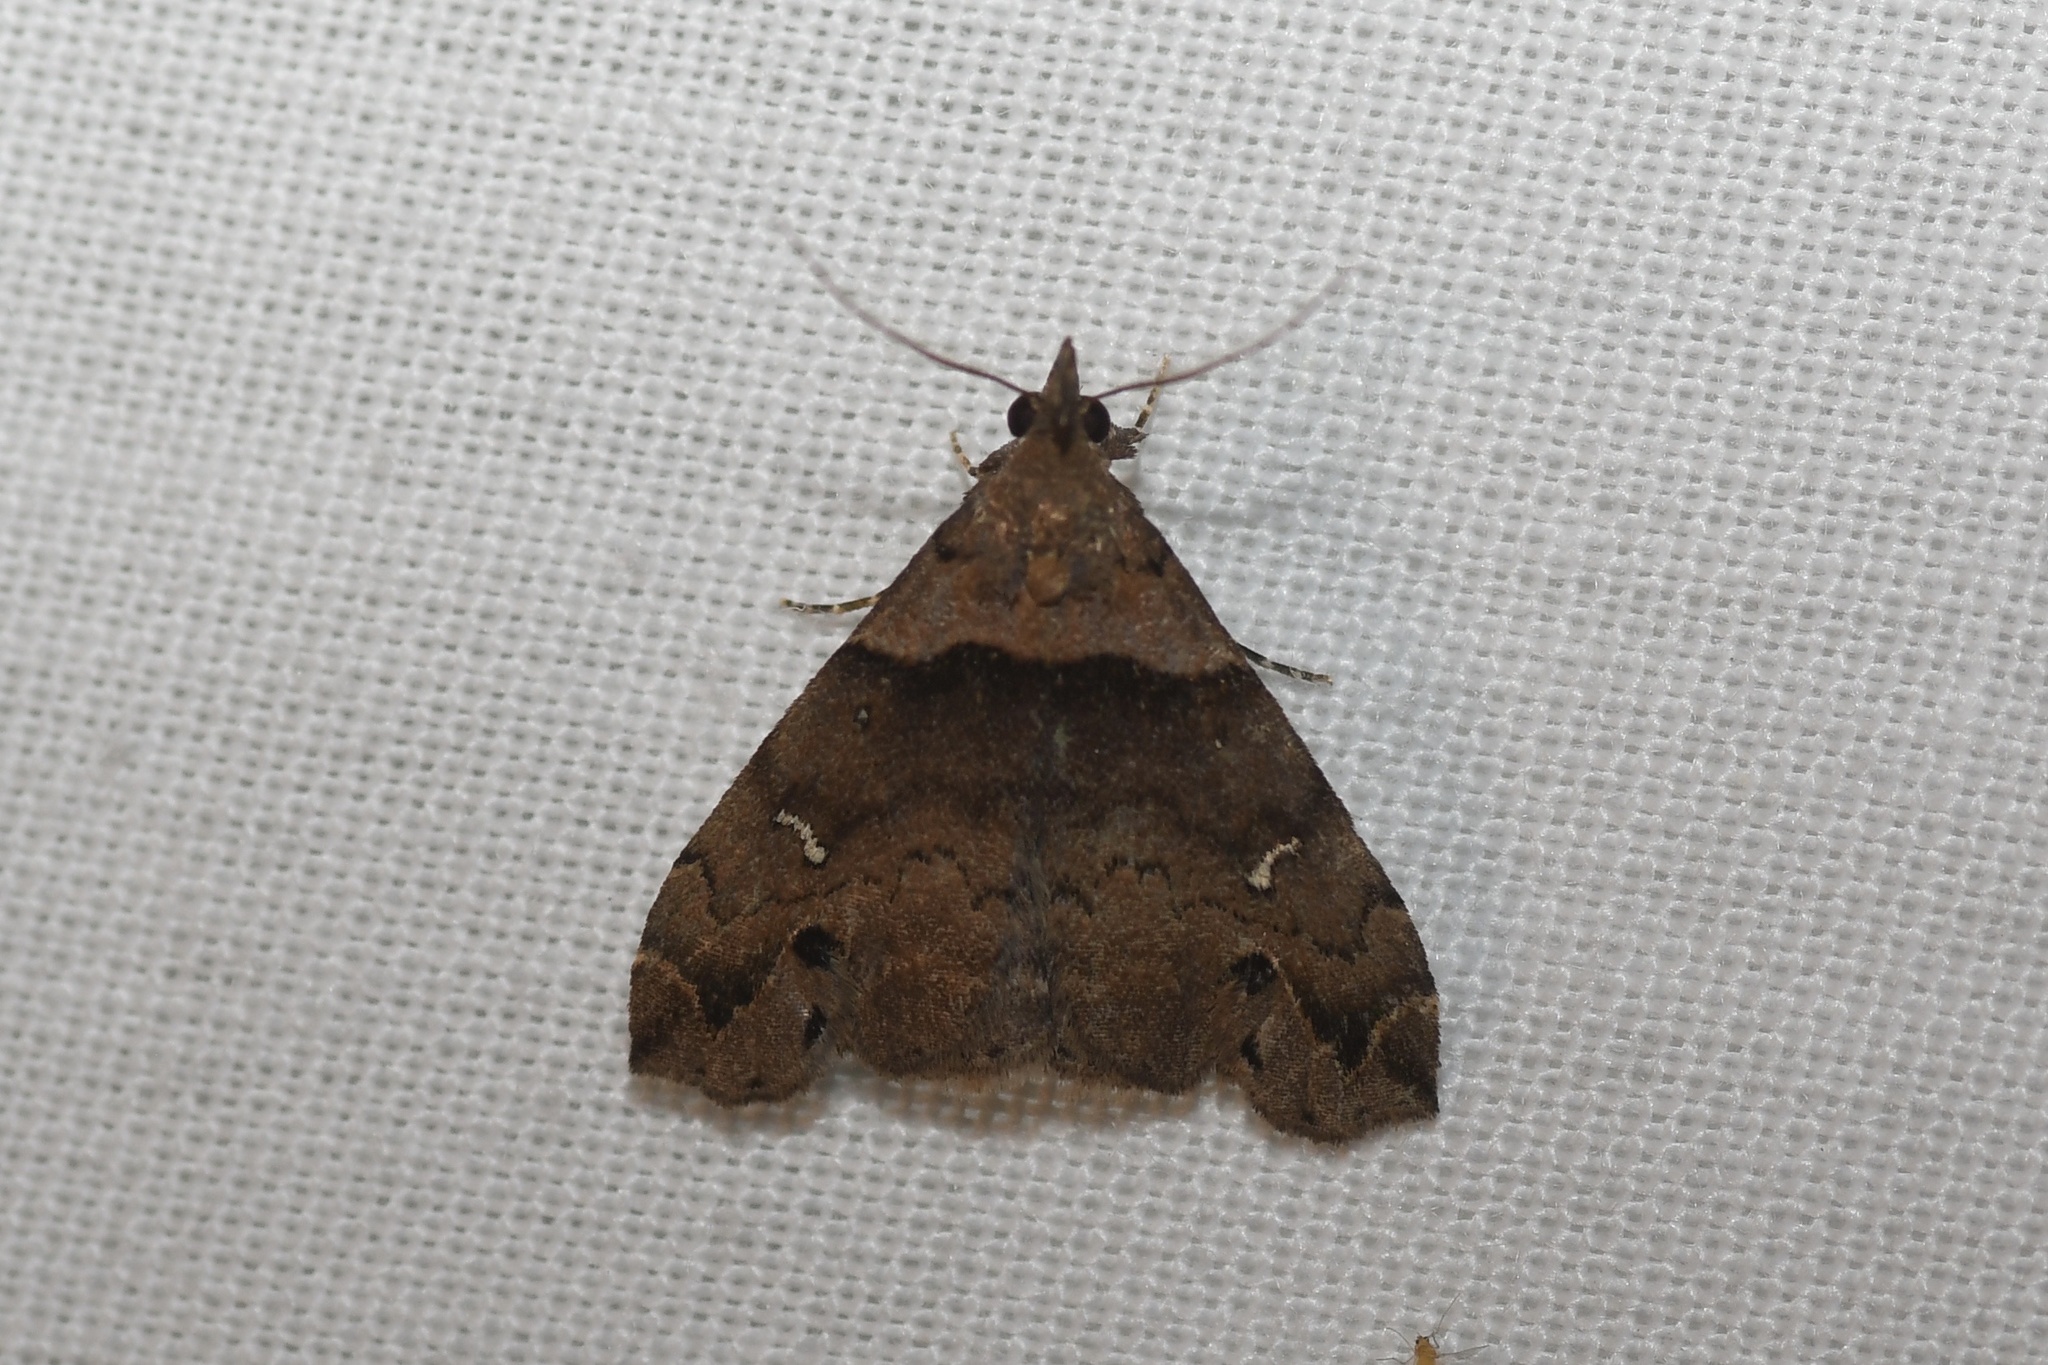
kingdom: Animalia
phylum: Arthropoda
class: Insecta
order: Lepidoptera
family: Erebidae
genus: Lascoria
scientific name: Lascoria ambigualis
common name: Ambiguous moth
